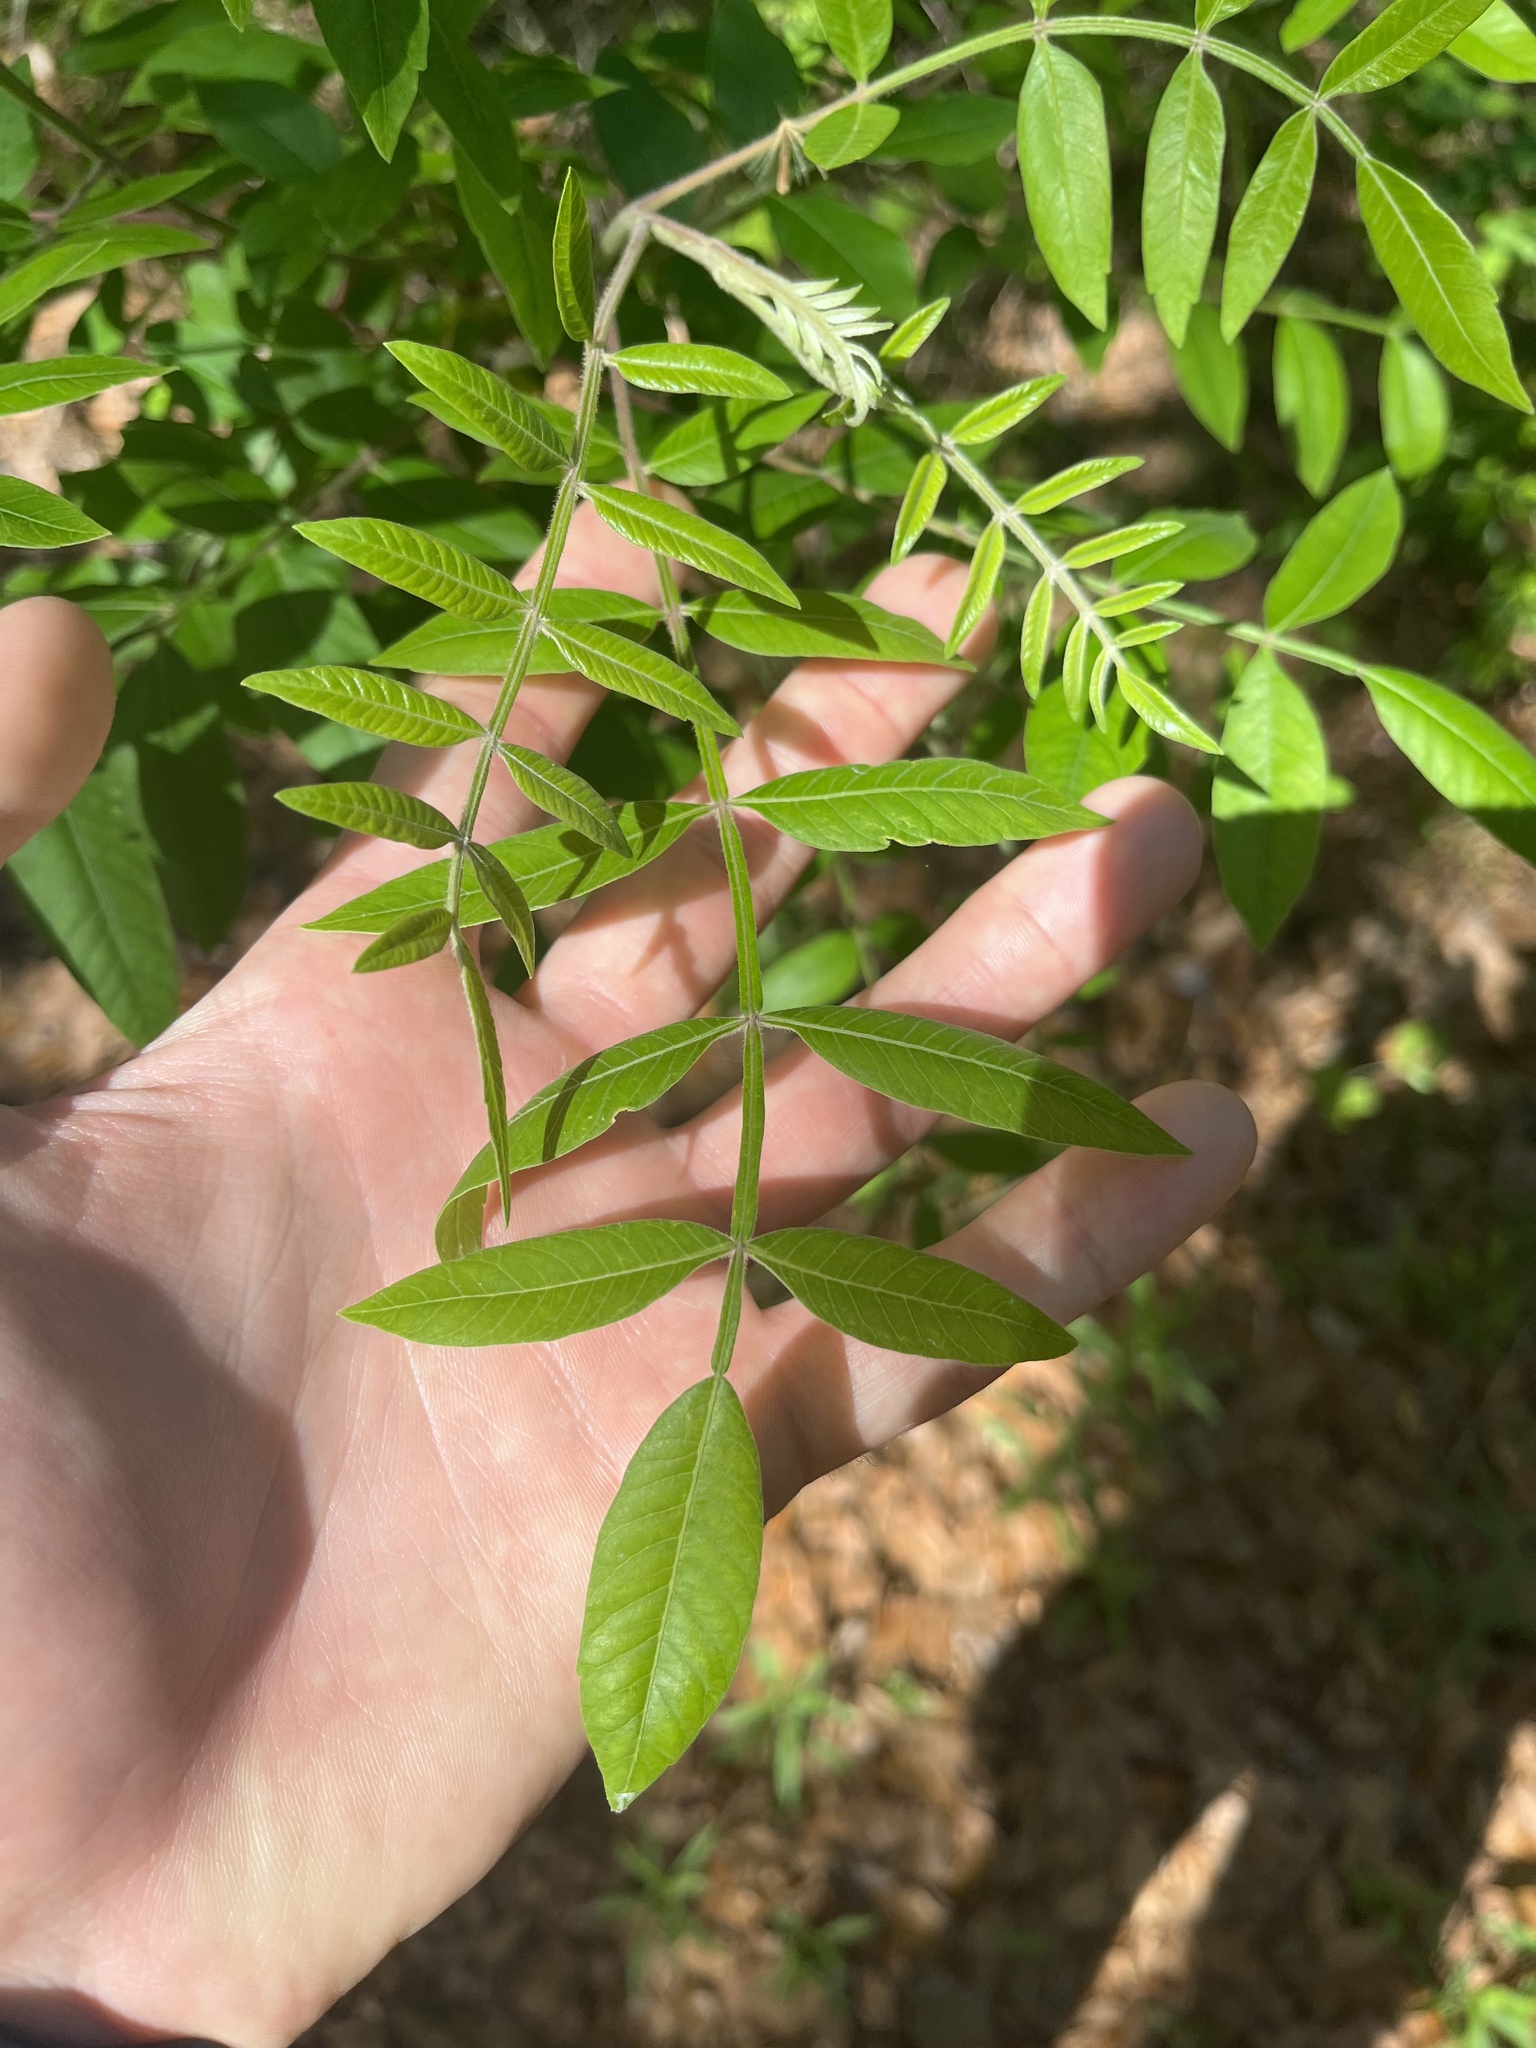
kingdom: Plantae
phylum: Tracheophyta
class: Magnoliopsida
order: Sapindales
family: Anacardiaceae
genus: Rhus
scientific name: Rhus copallina
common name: Shining sumac
